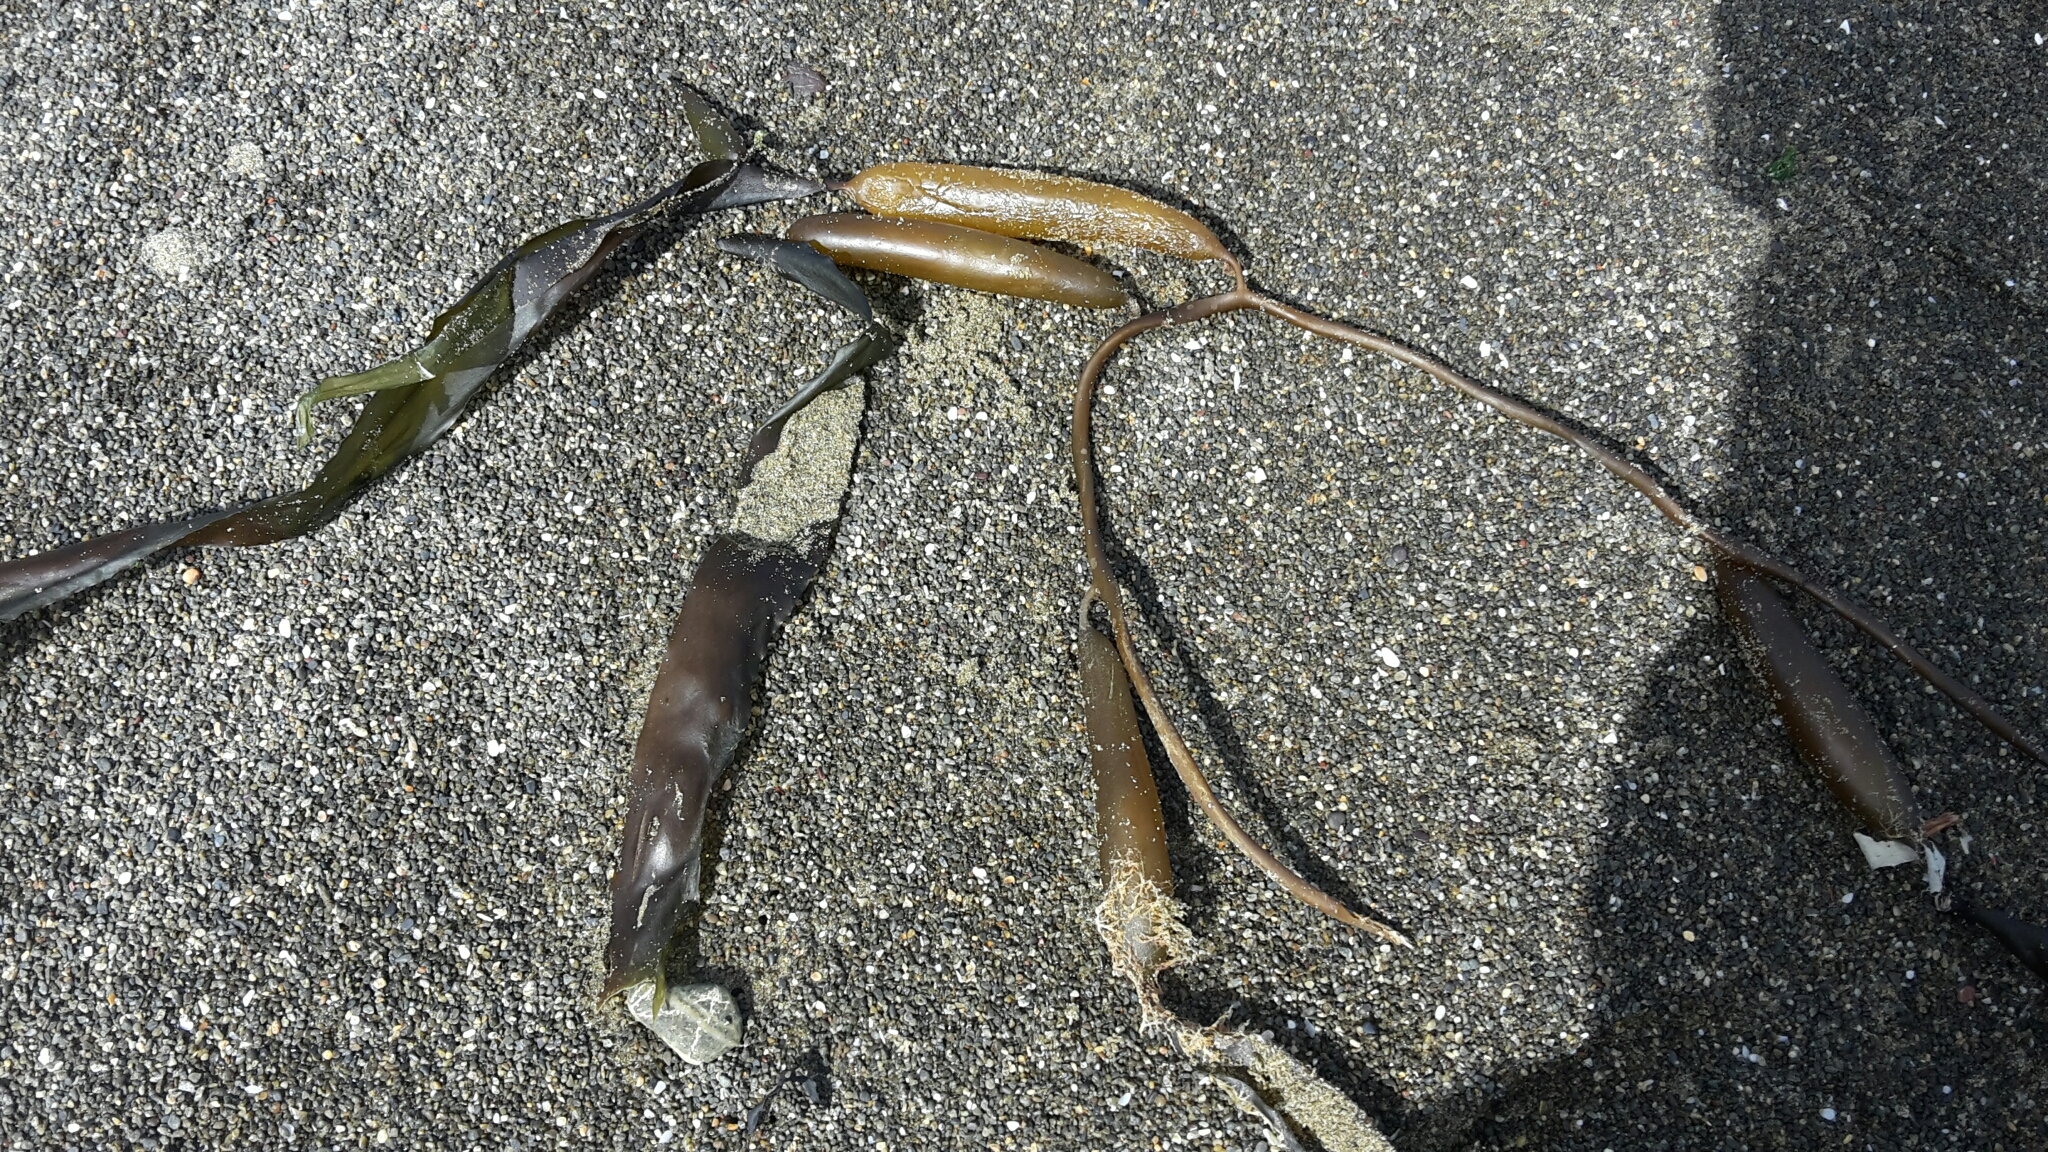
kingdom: Chromista
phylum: Ochrophyta
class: Phaeophyceae
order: Laminariales
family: Laminariaceae
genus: Macrocystis
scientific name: Macrocystis pyrifera
